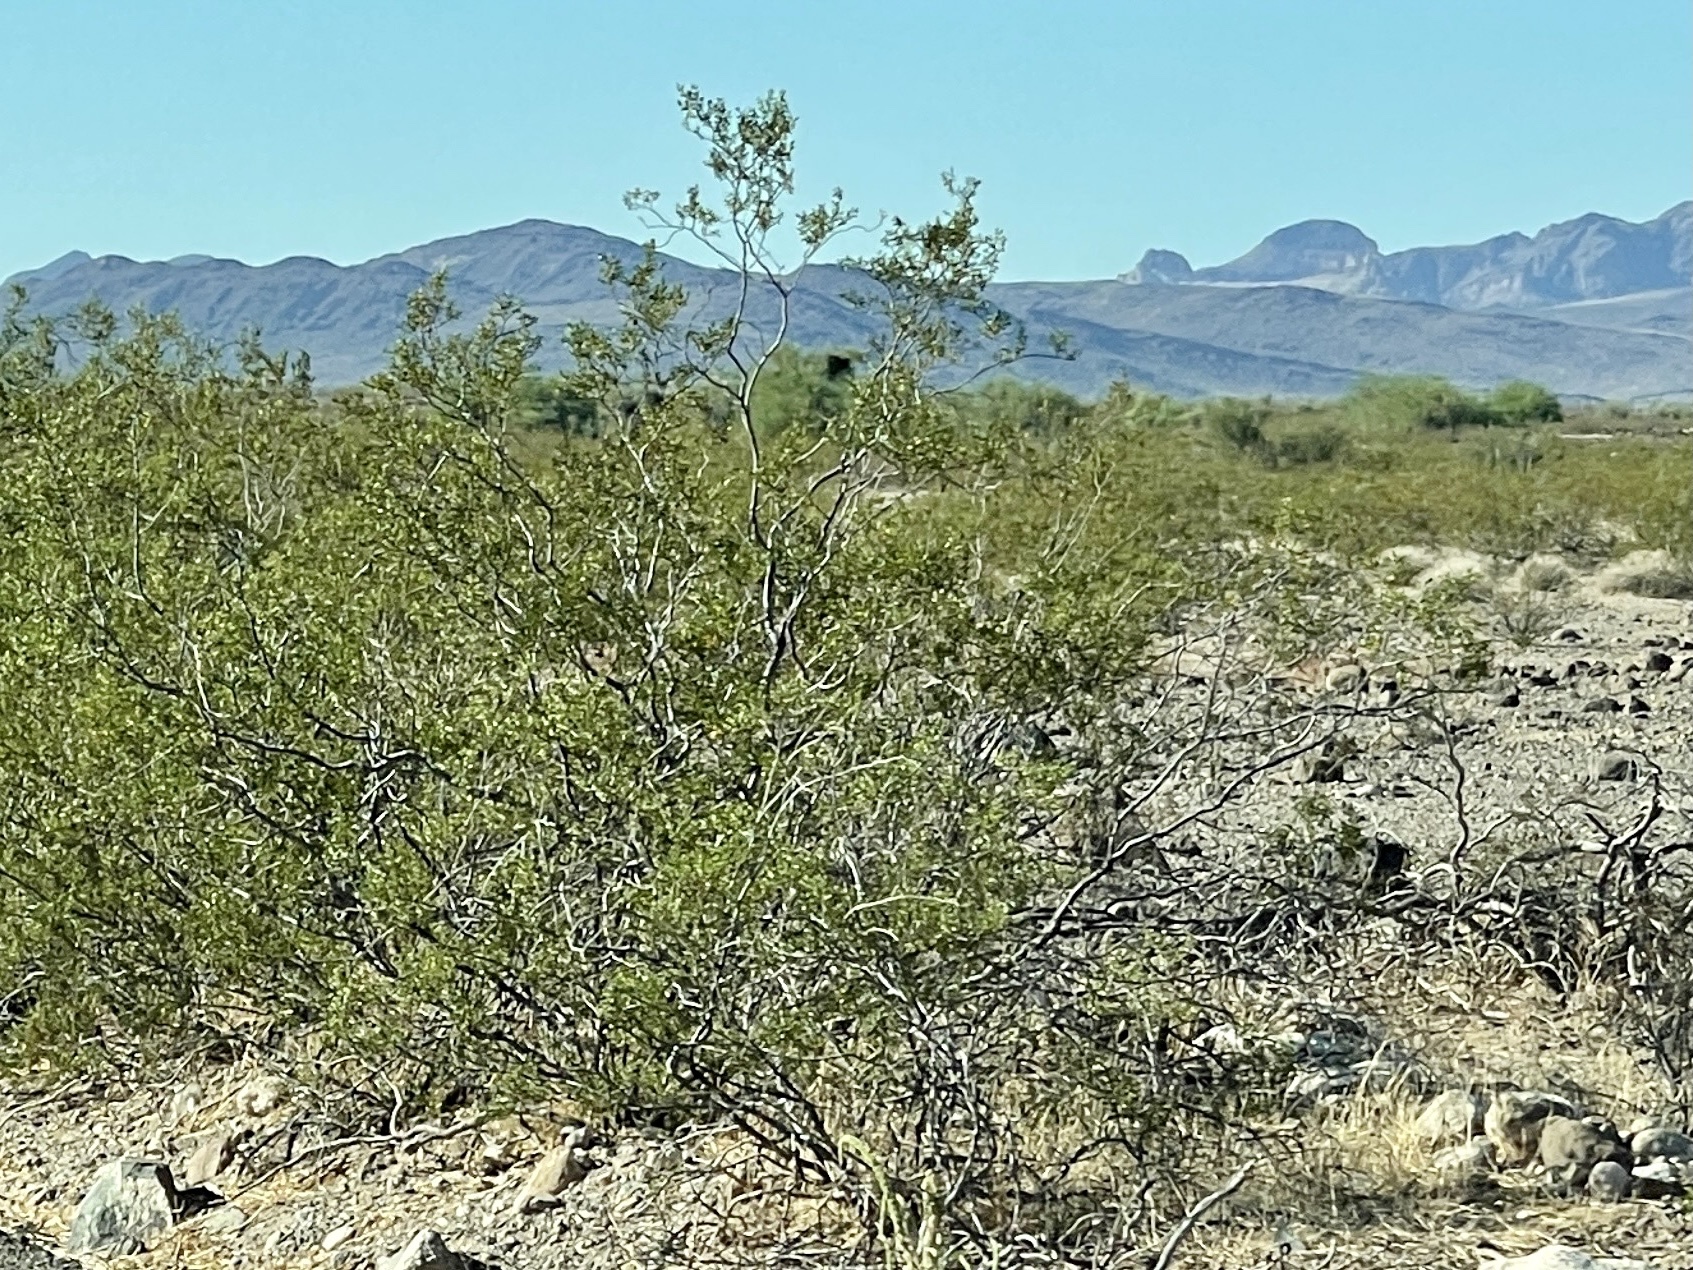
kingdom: Plantae
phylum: Tracheophyta
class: Magnoliopsida
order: Zygophyllales
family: Zygophyllaceae
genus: Larrea
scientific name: Larrea tridentata
